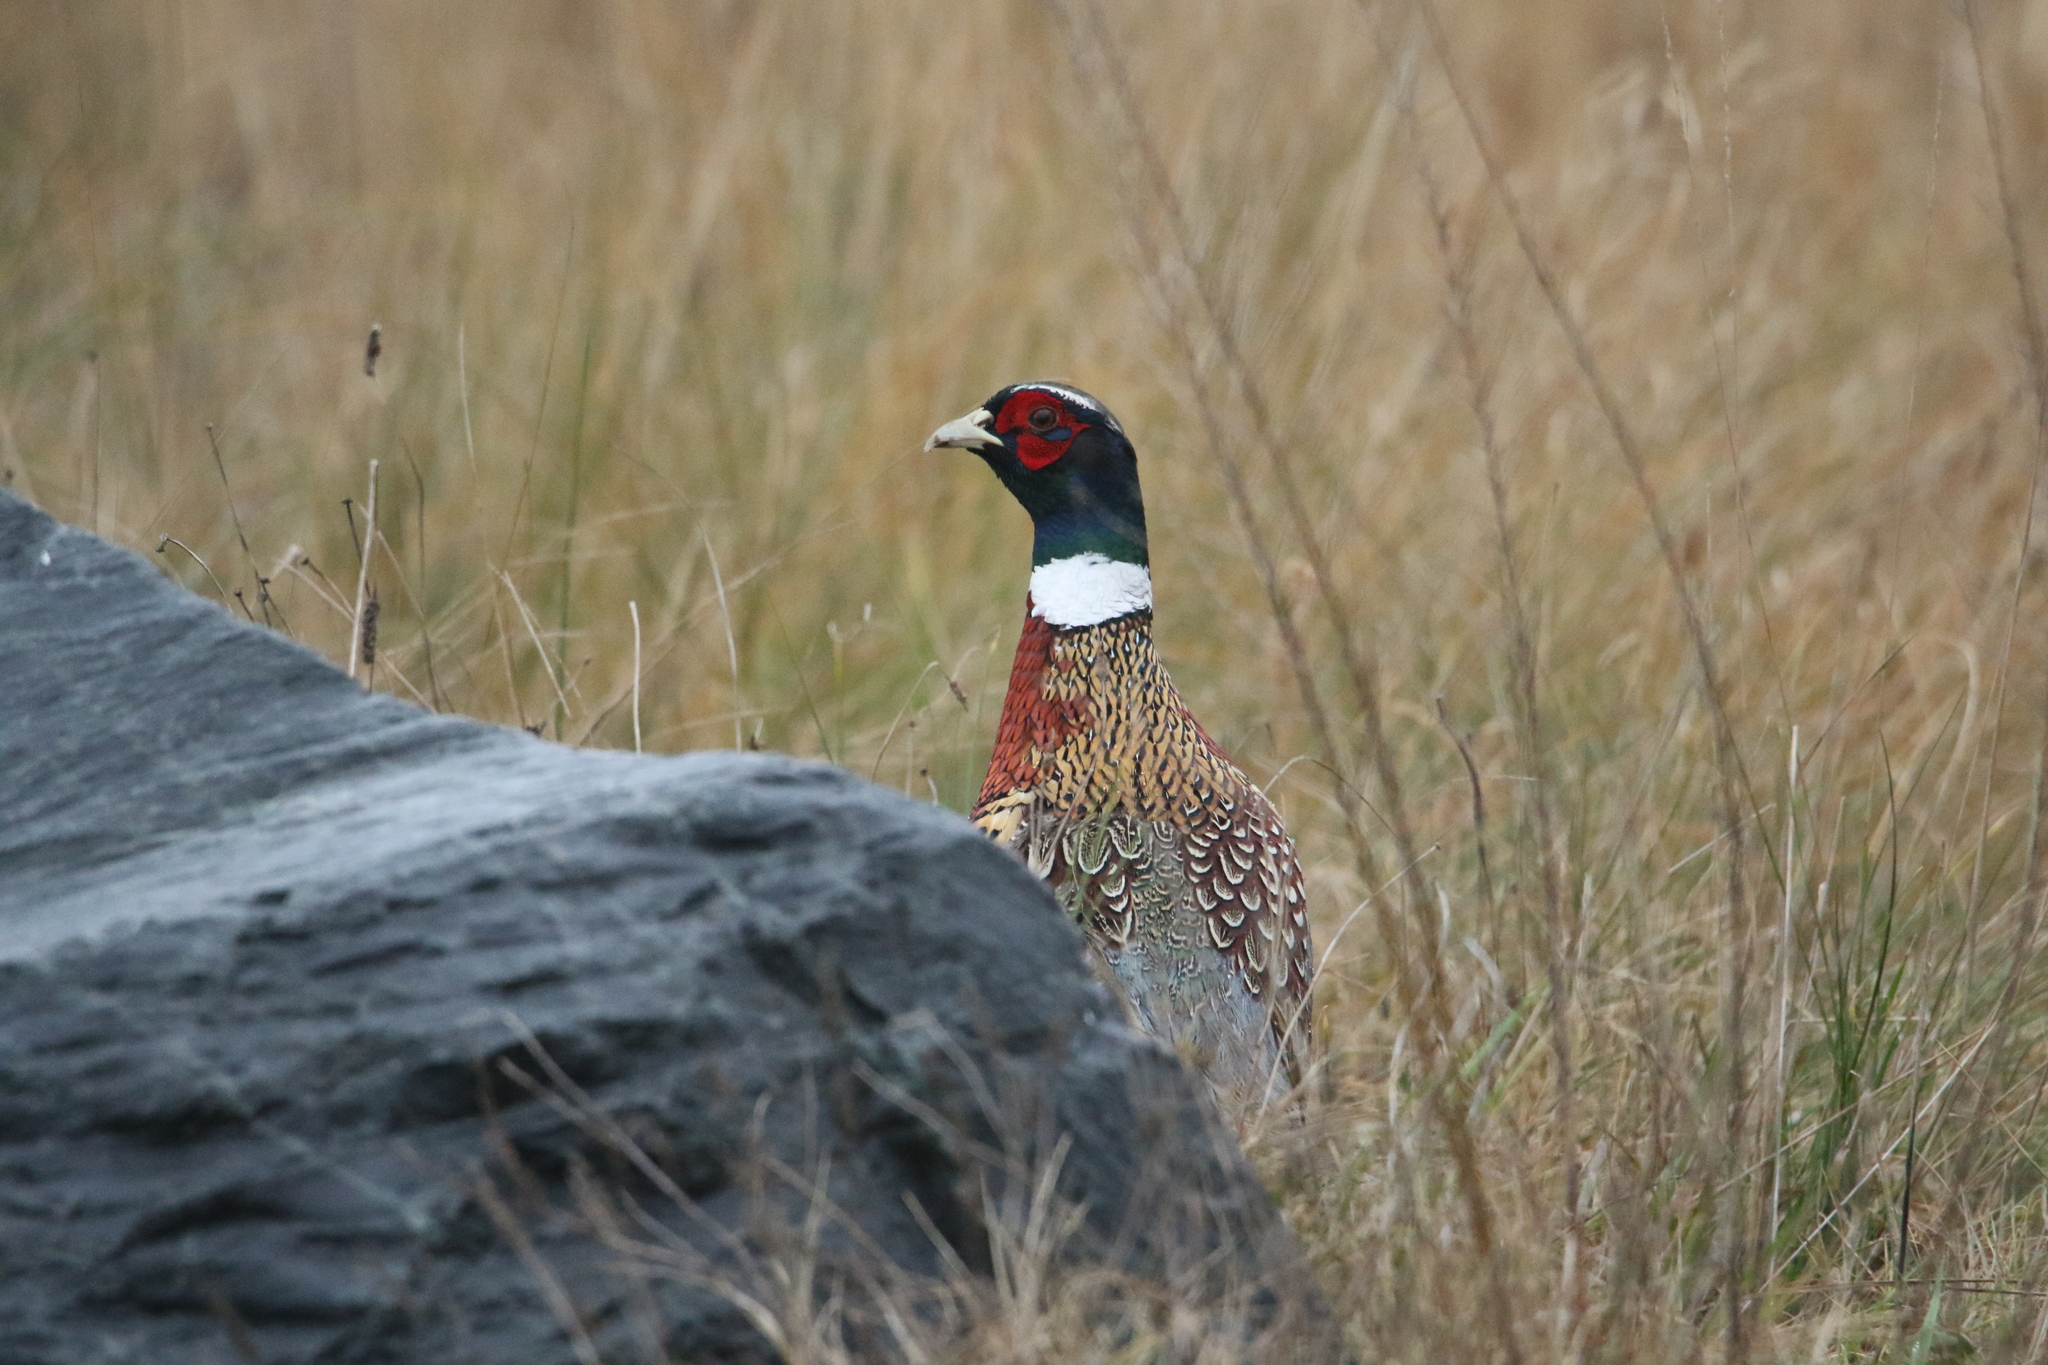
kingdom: Animalia
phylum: Chordata
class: Aves
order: Galliformes
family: Phasianidae
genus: Phasianus
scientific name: Phasianus colchicus
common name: Common pheasant
